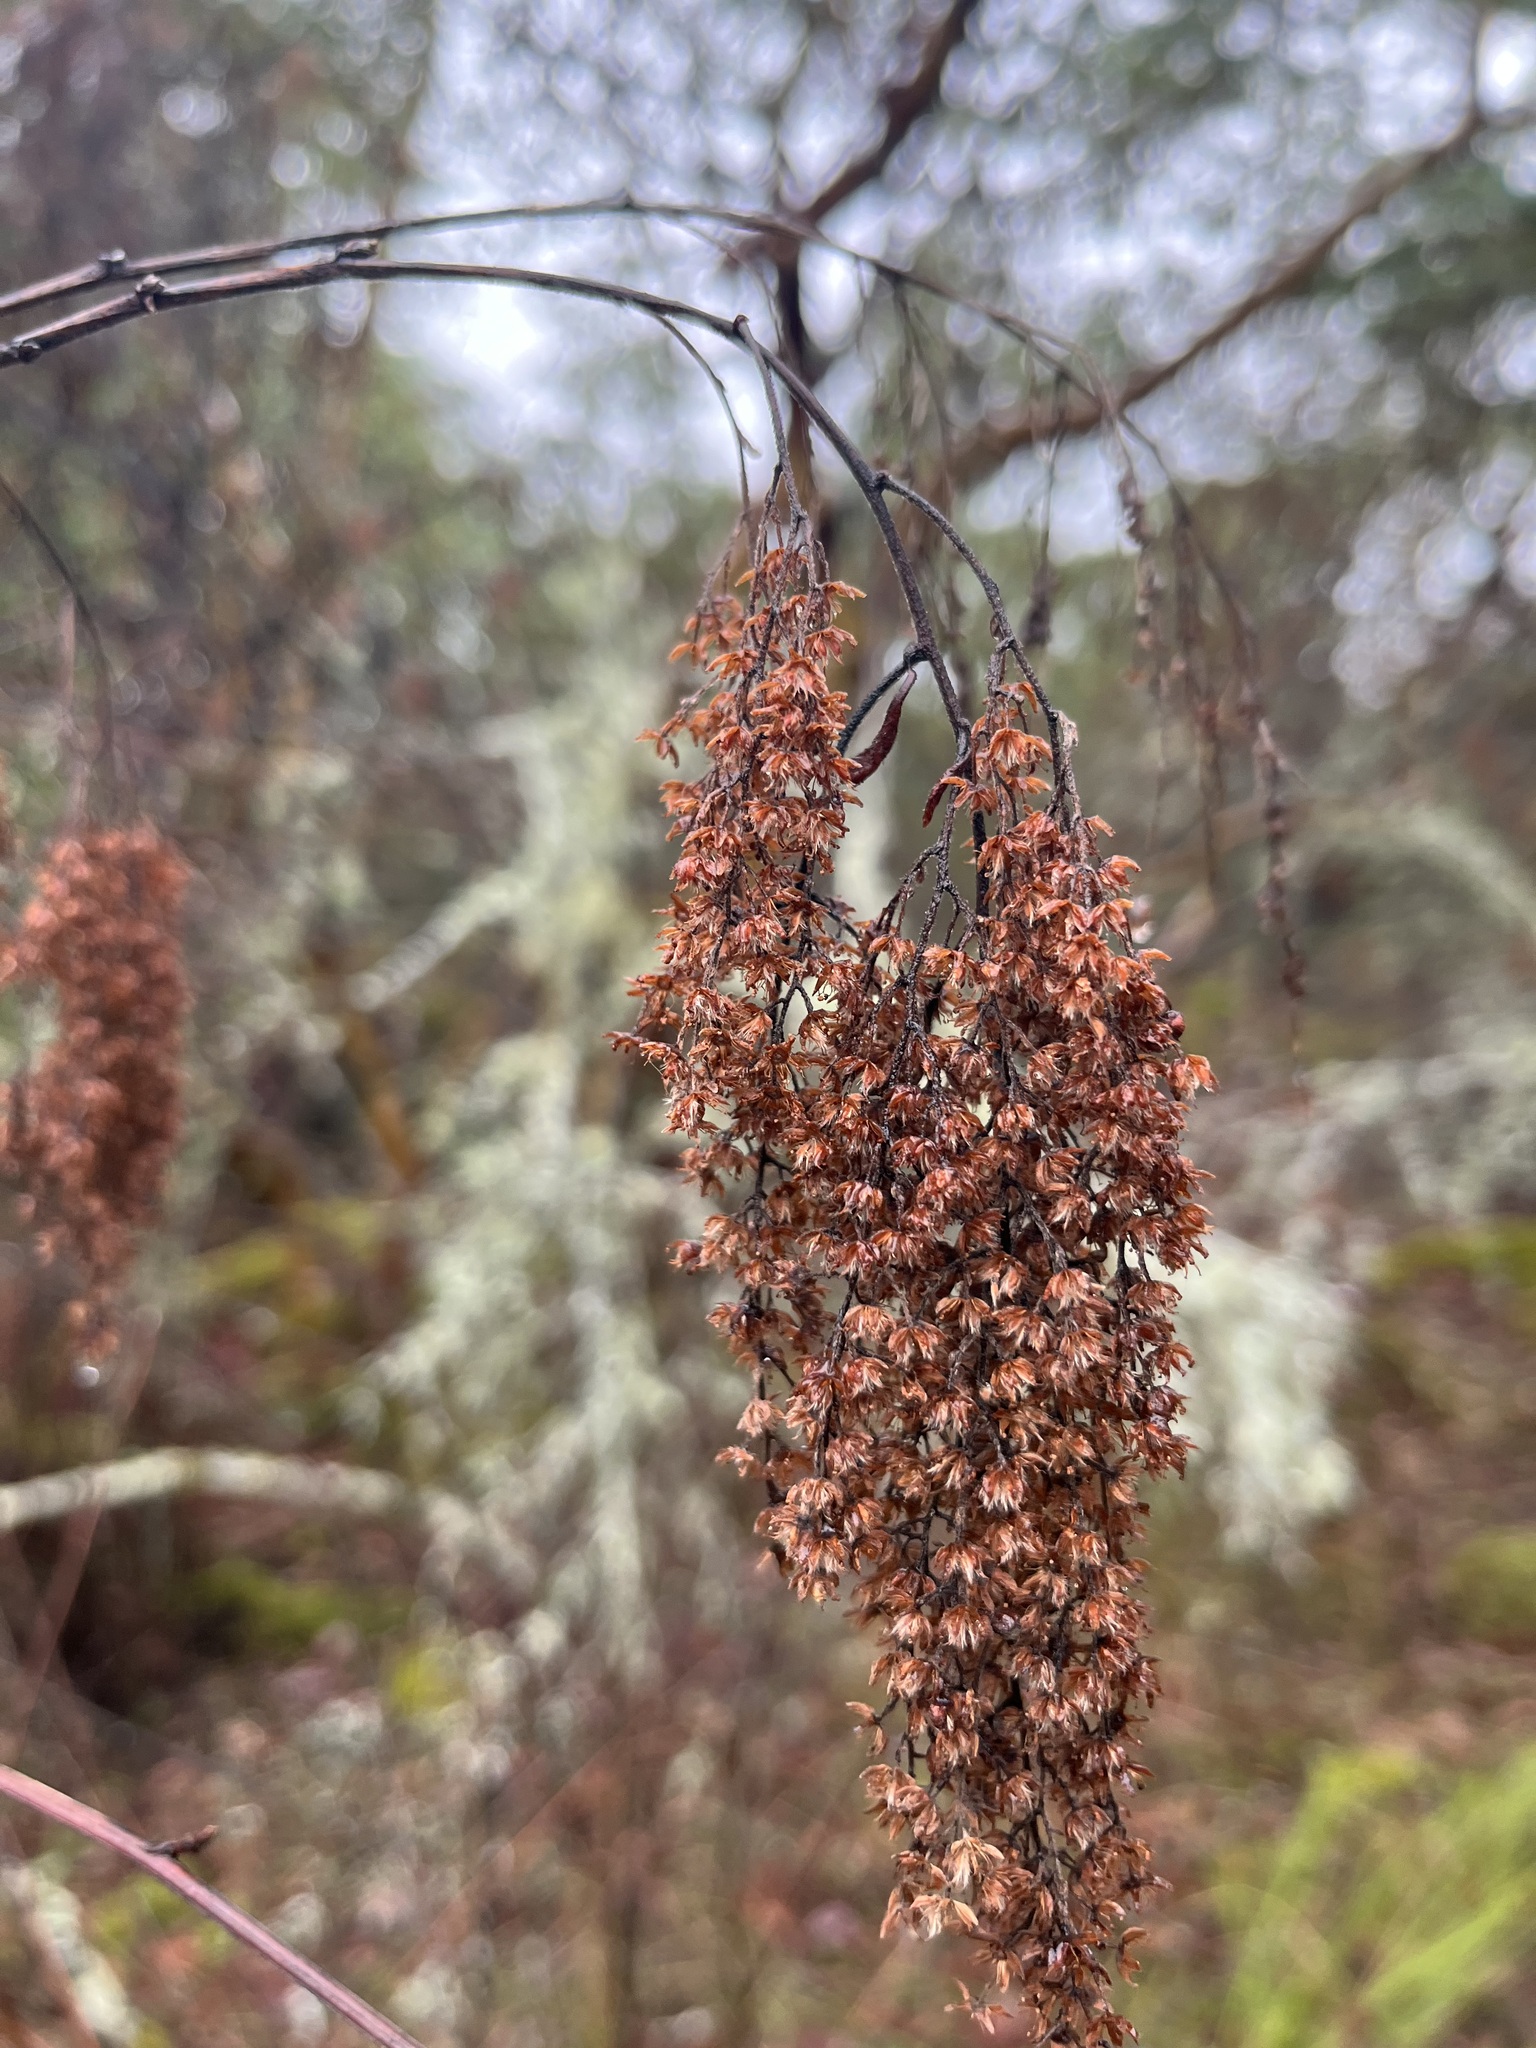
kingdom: Plantae
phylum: Tracheophyta
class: Magnoliopsida
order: Rosales
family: Rosaceae
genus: Holodiscus
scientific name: Holodiscus discolor
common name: Oceanspray
